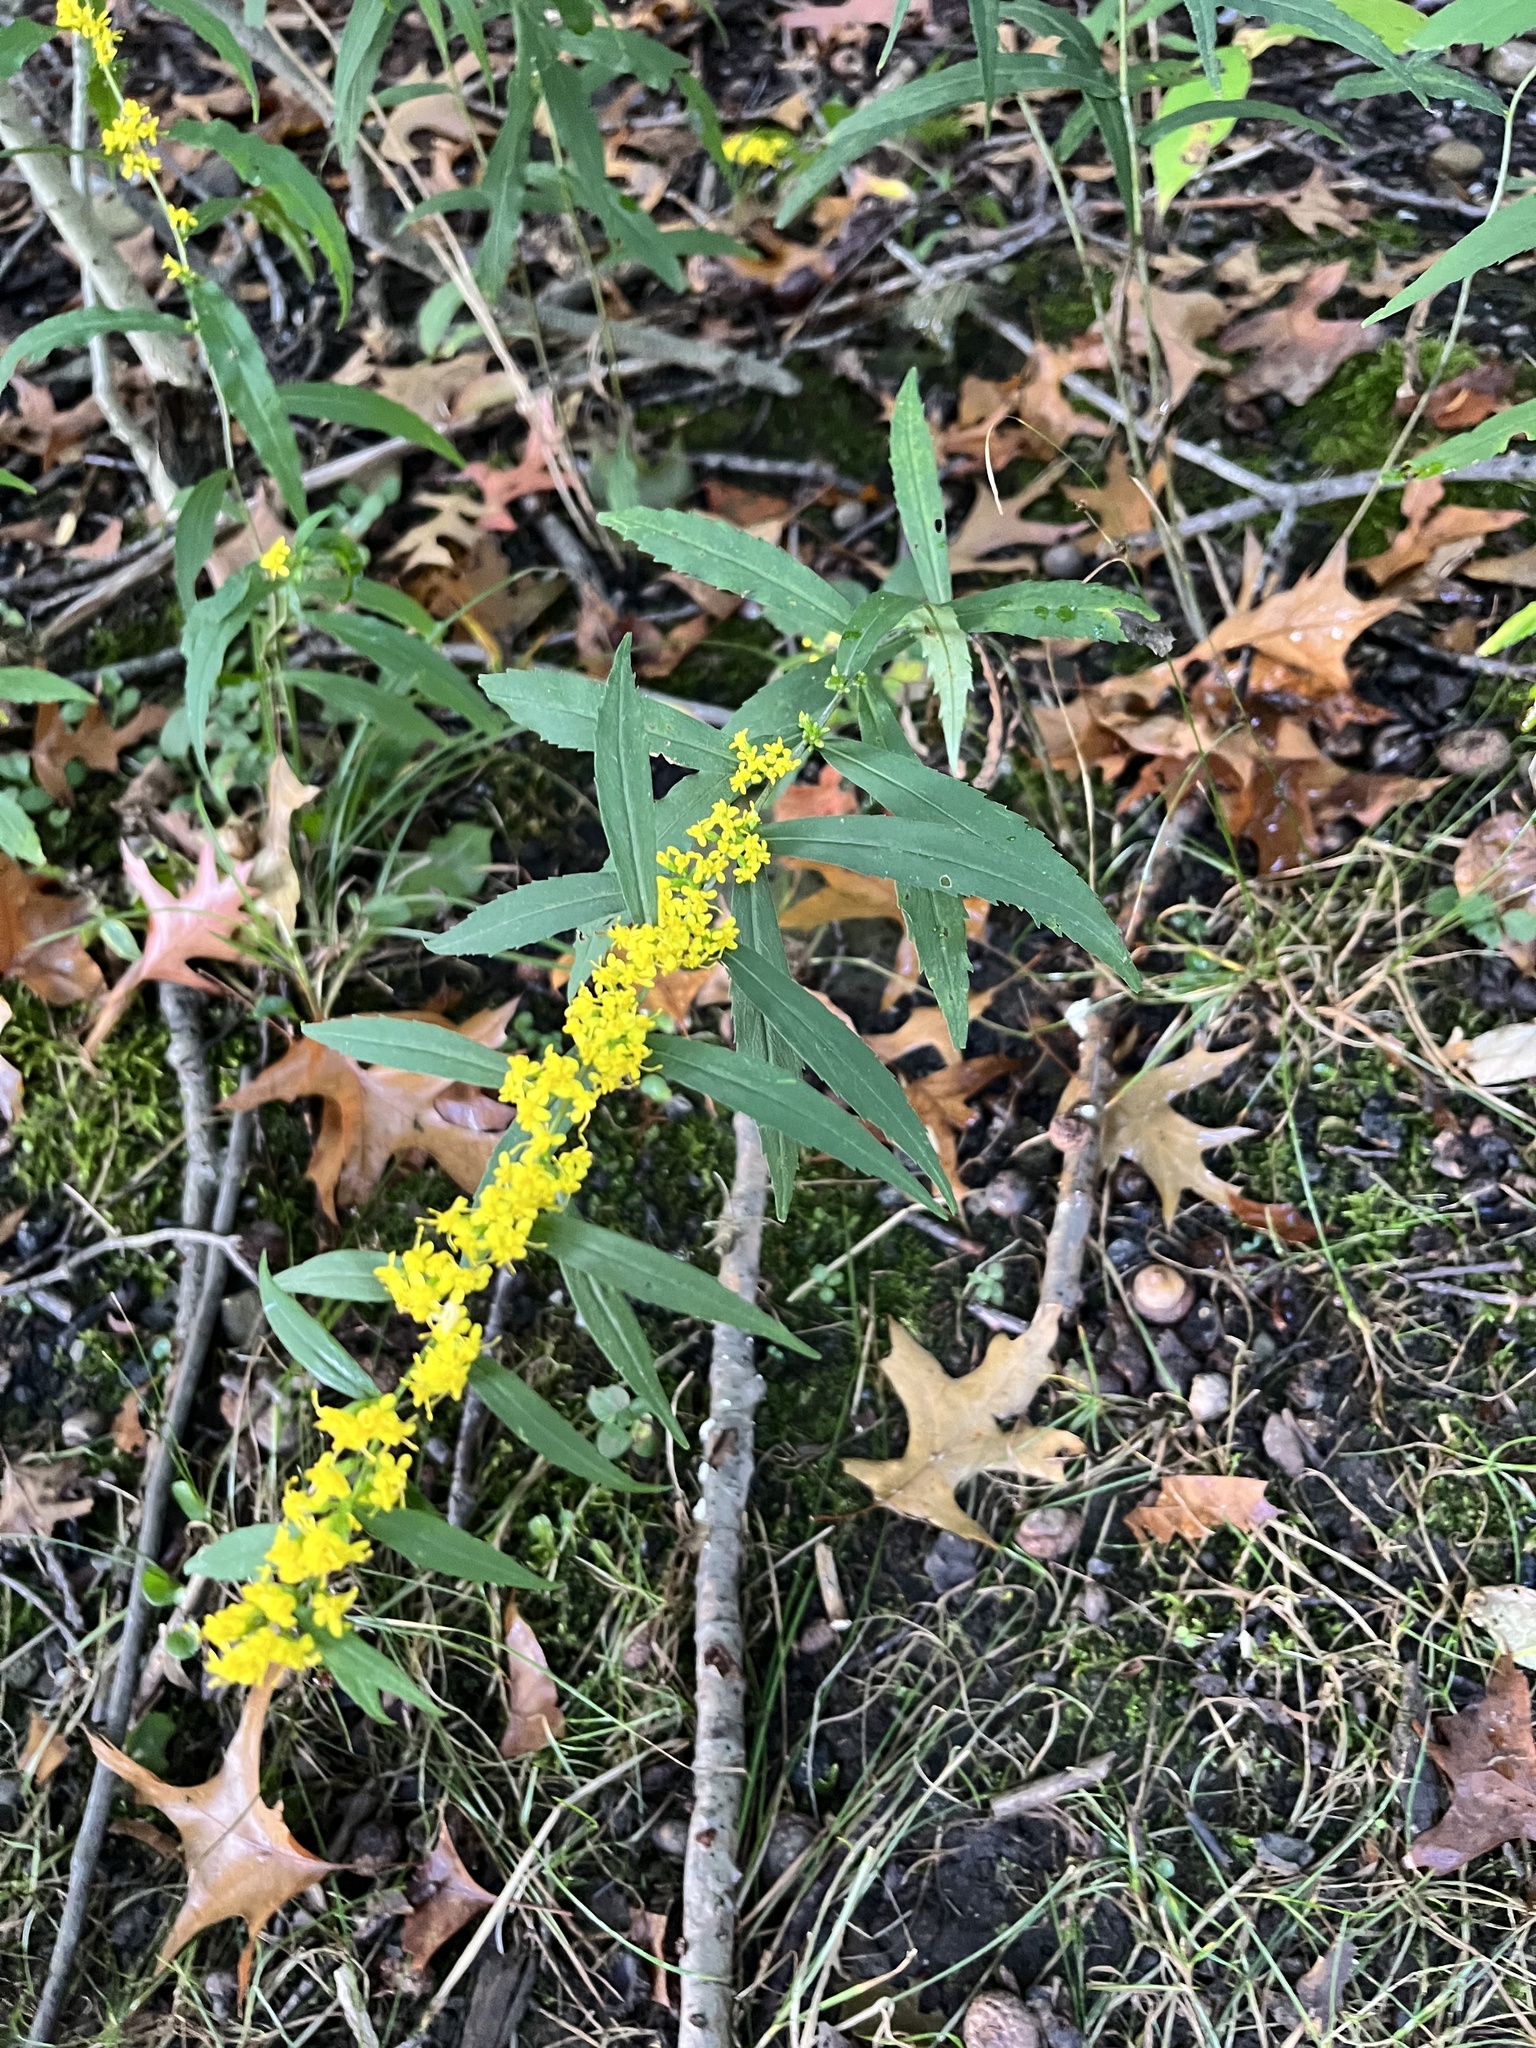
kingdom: Plantae
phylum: Tracheophyta
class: Magnoliopsida
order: Asterales
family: Asteraceae
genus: Solidago
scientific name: Solidago caesia
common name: Woodland goldenrod
